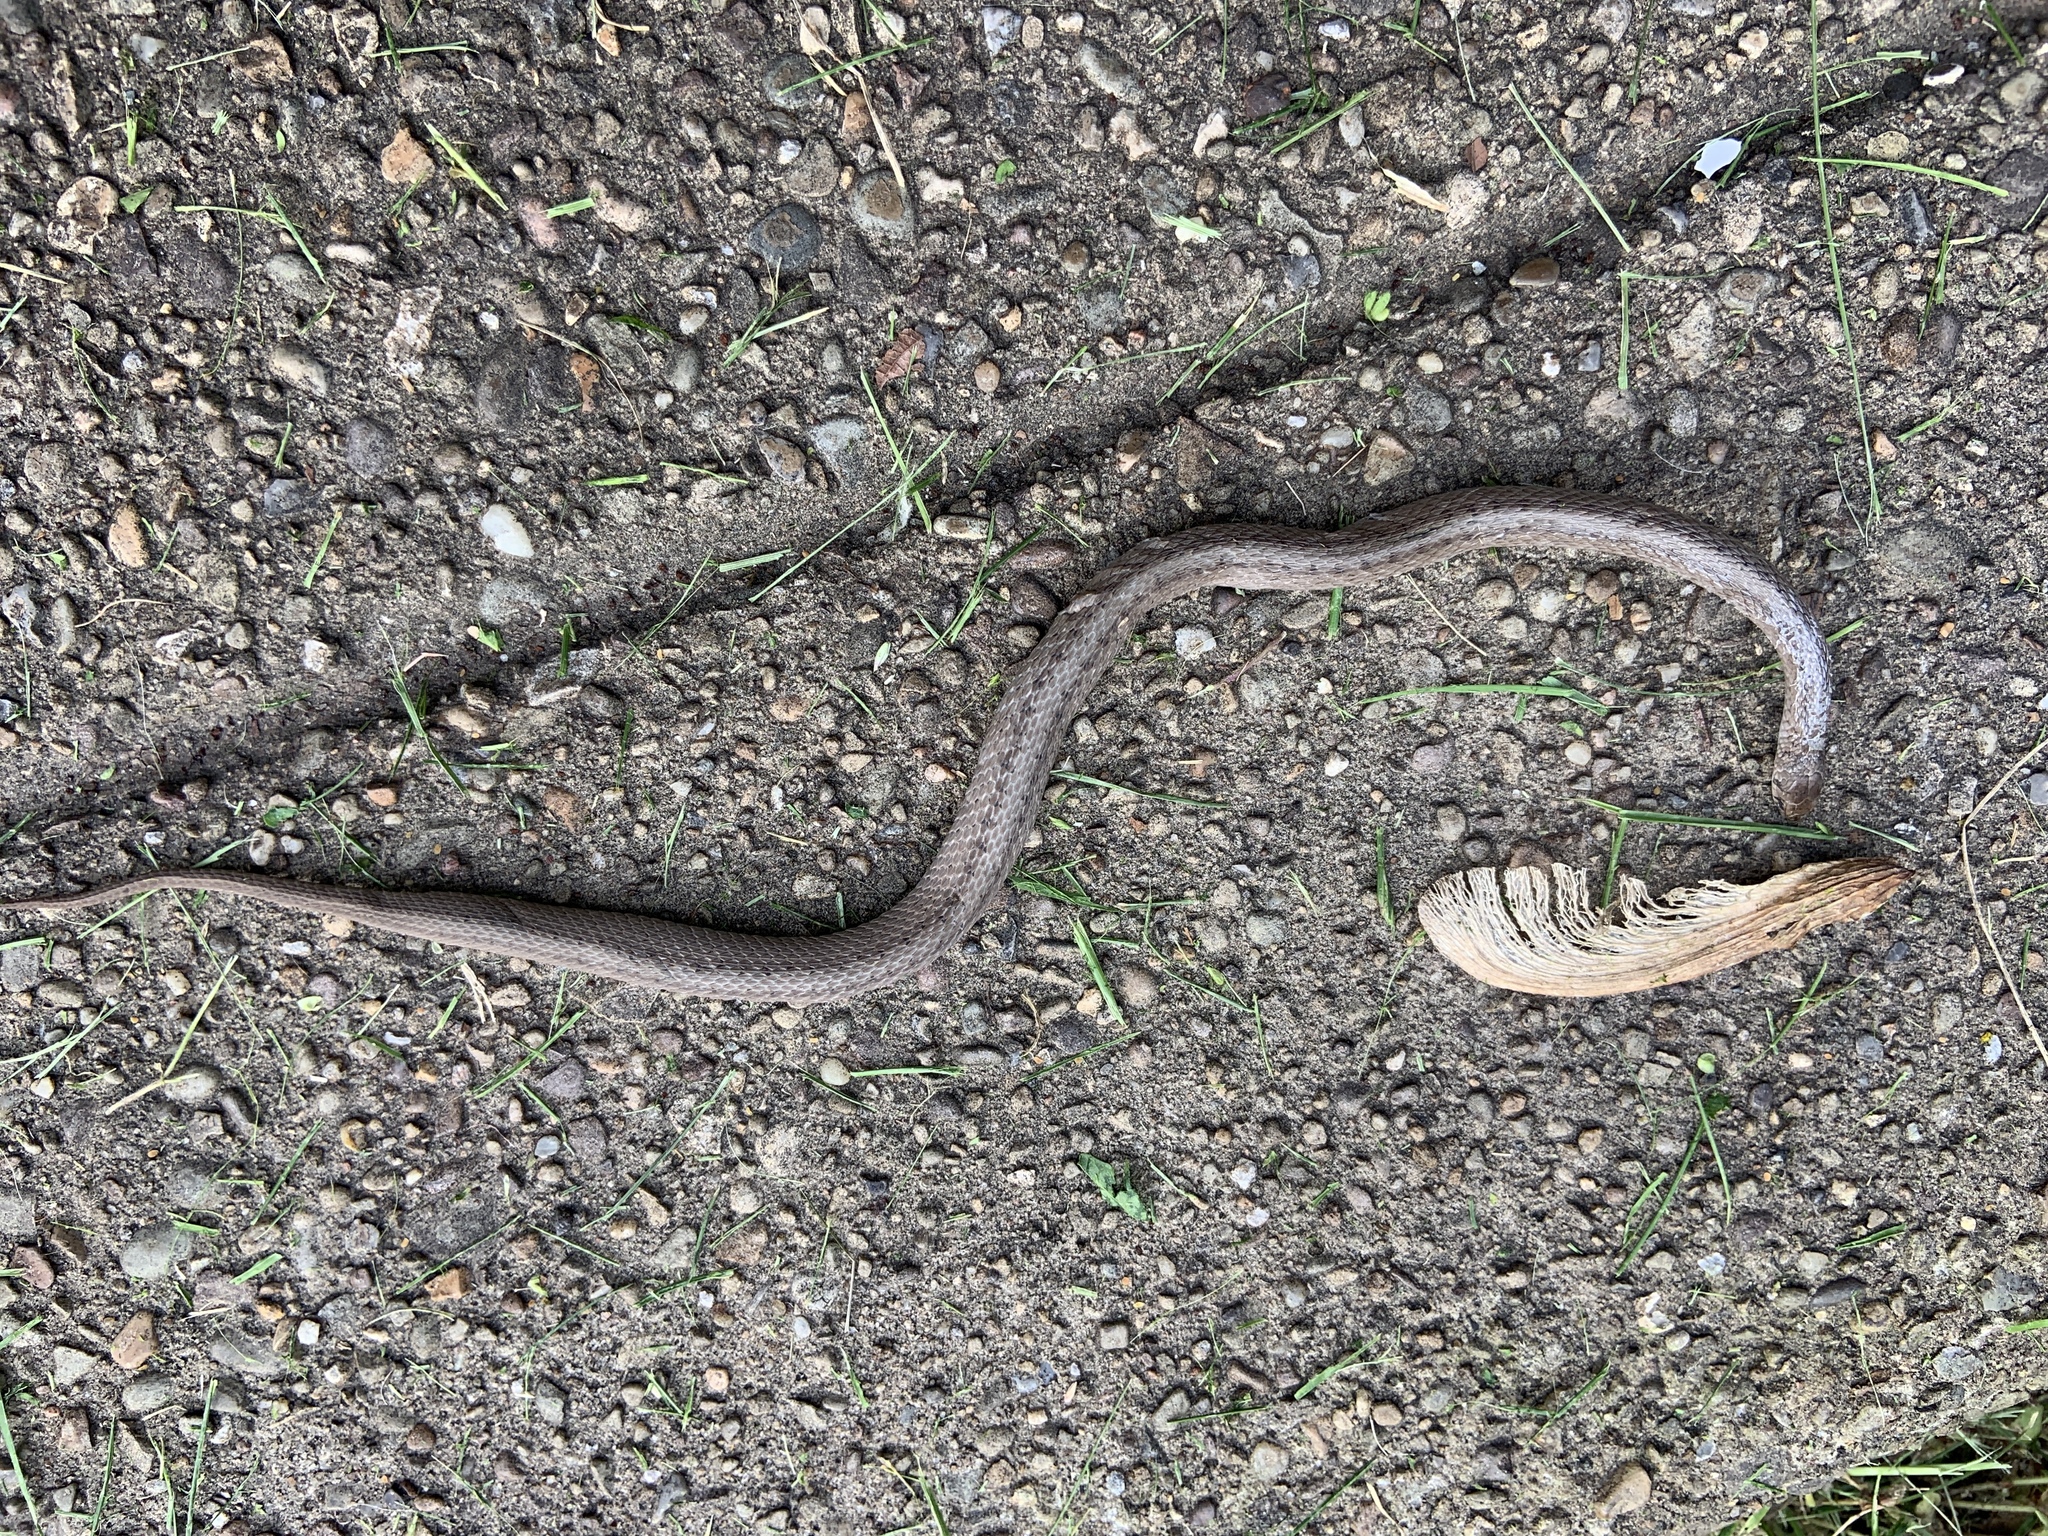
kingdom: Animalia
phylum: Chordata
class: Squamata
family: Colubridae
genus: Storeria
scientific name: Storeria dekayi
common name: (dekay’s) brown snake
